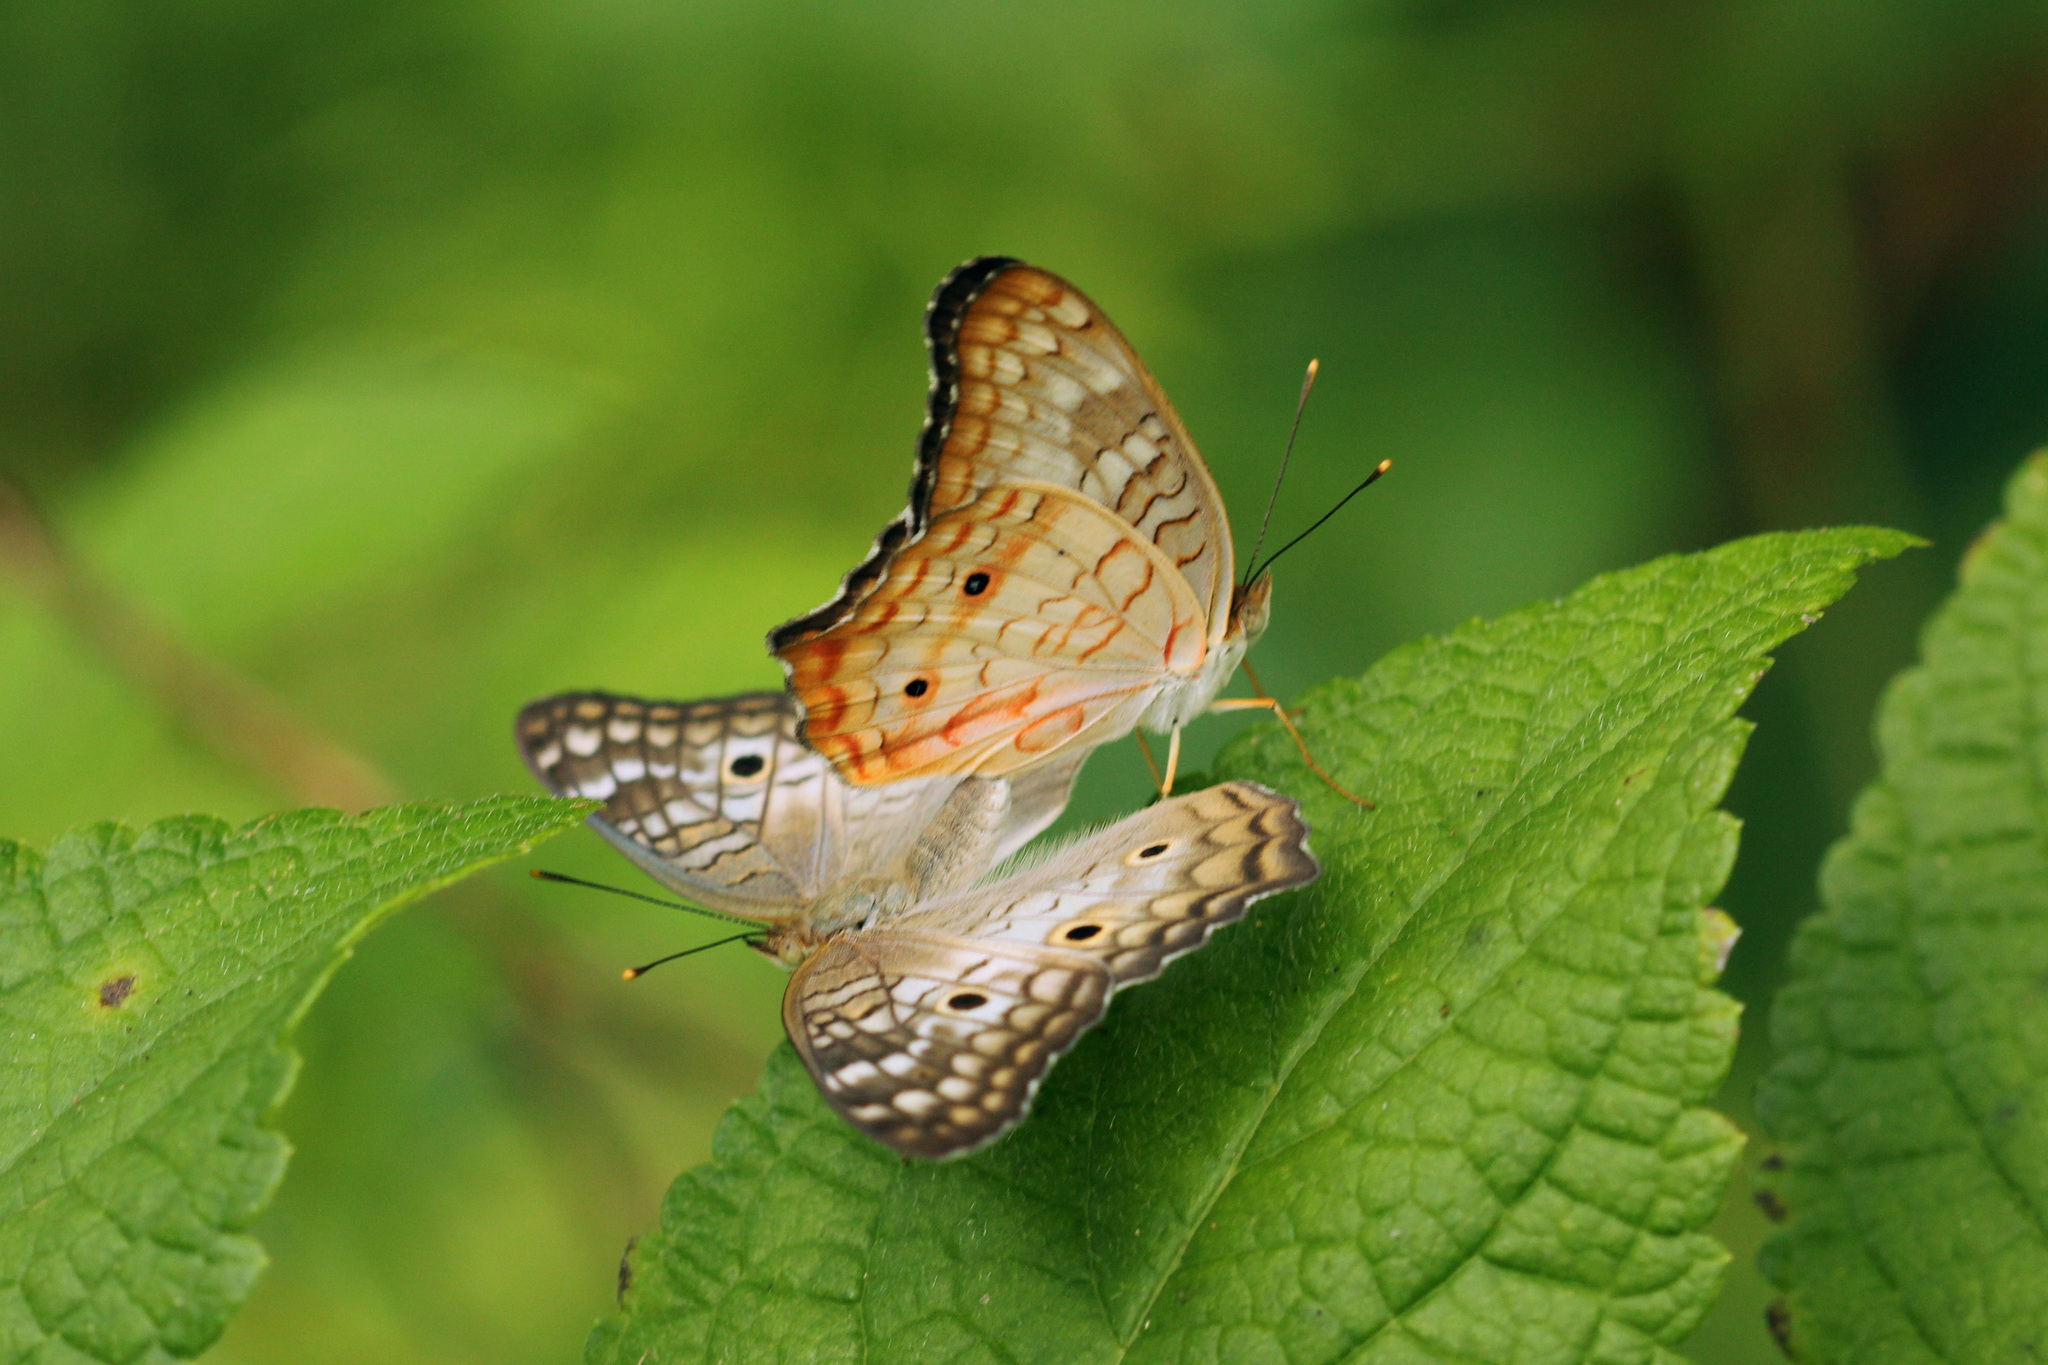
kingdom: Animalia
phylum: Arthropoda
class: Insecta
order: Lepidoptera
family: Nymphalidae
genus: Anartia
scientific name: Anartia jatrophae
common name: White peacock
